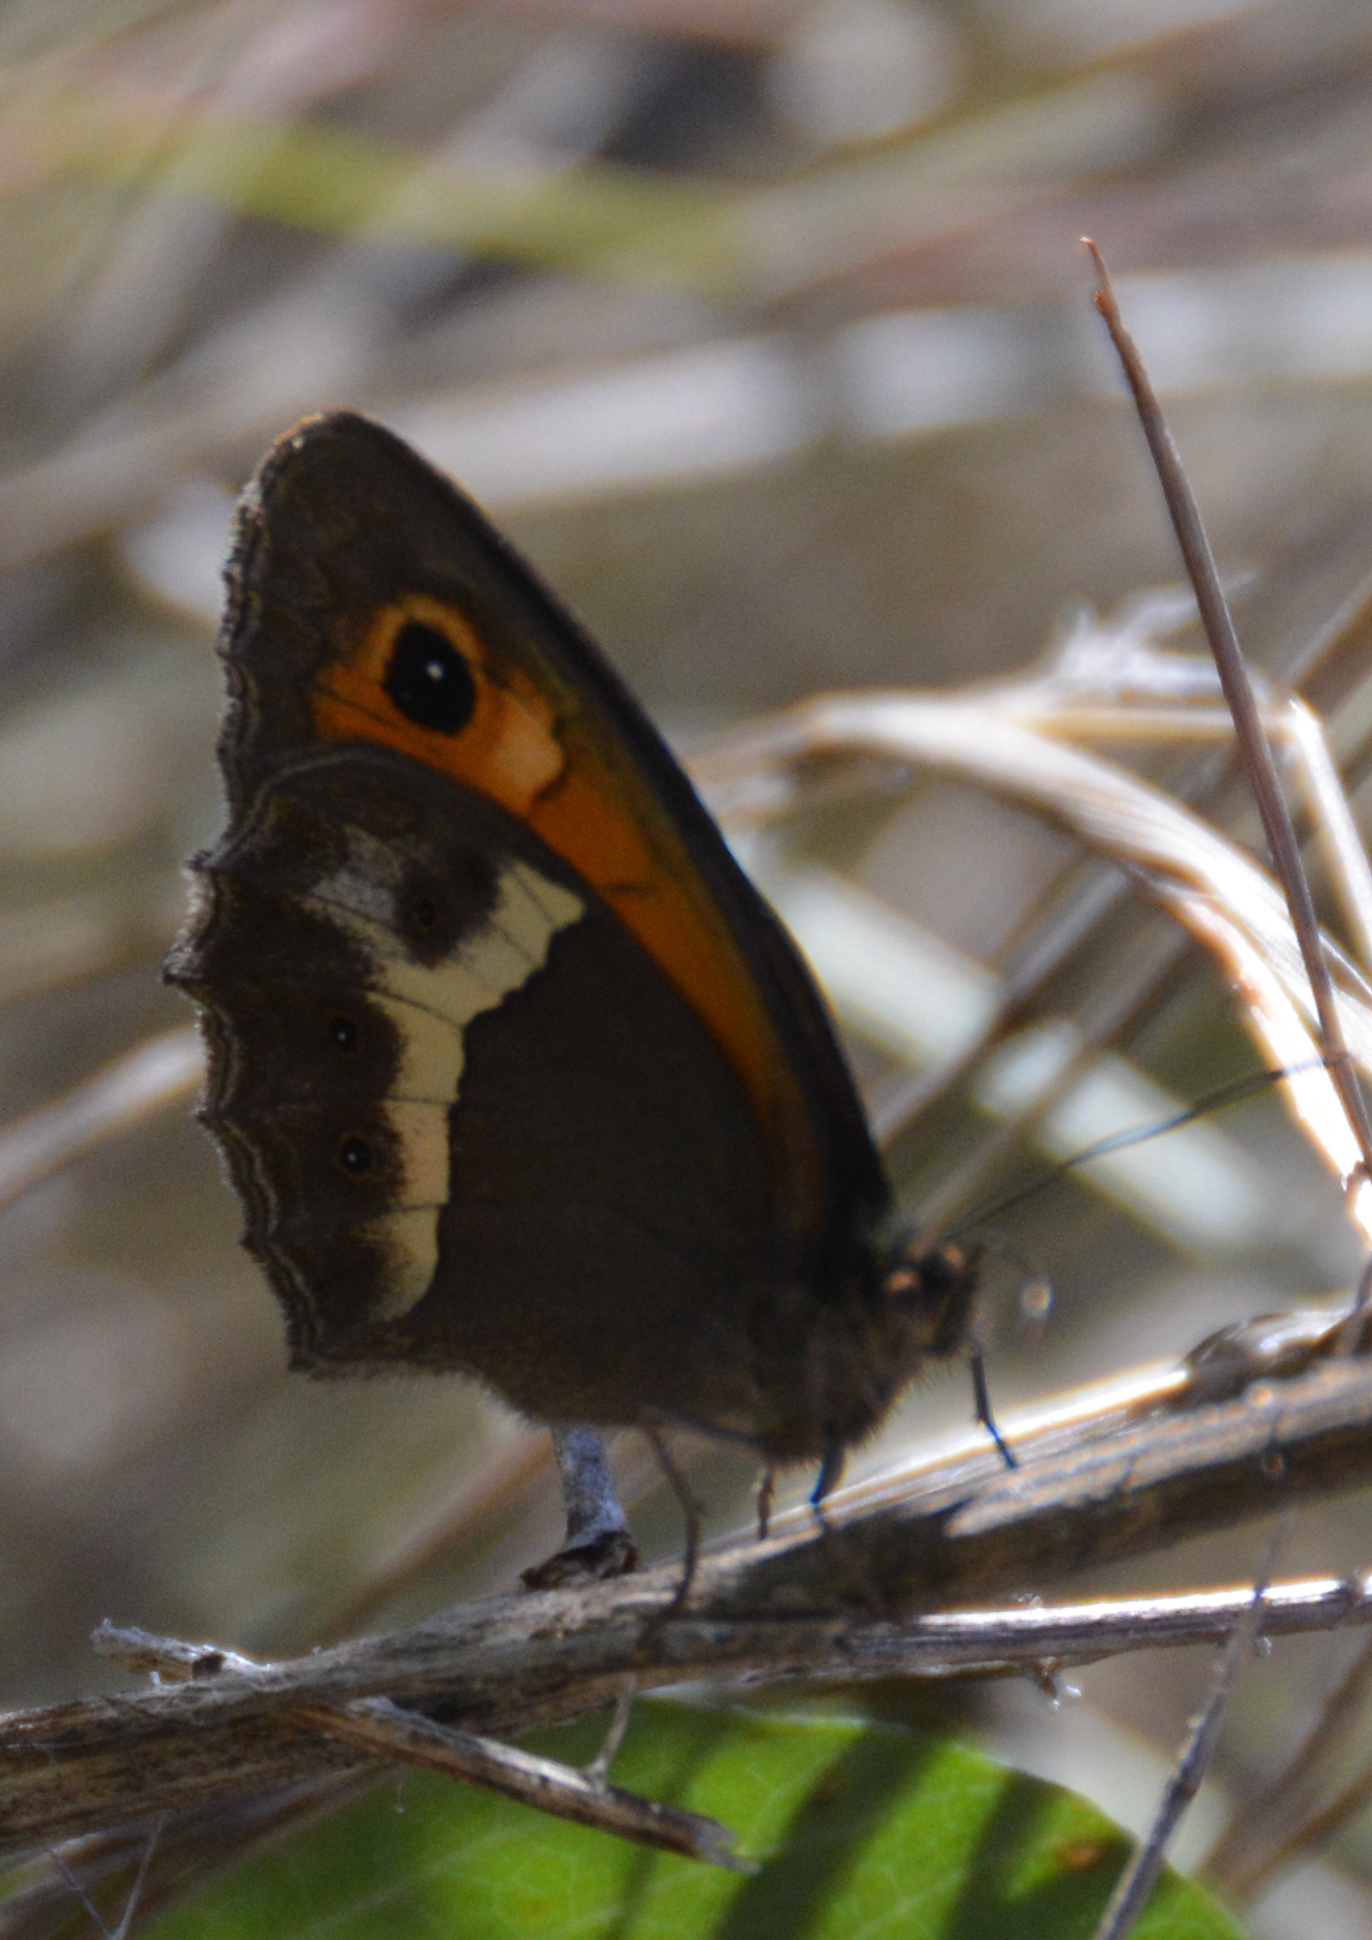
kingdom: Animalia
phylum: Arthropoda
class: Insecta
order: Lepidoptera
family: Nymphalidae
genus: Pyronia
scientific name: Pyronia bathseba
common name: Spanish gatekeeper
